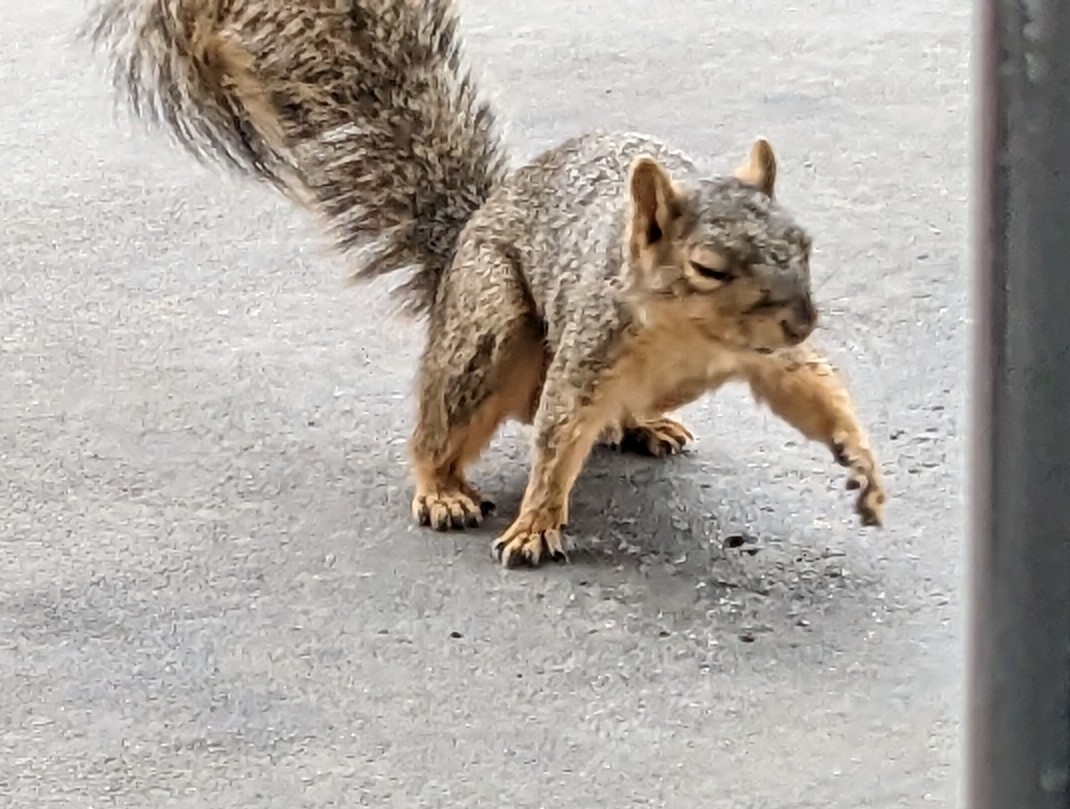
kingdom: Animalia
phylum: Chordata
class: Mammalia
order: Rodentia
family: Sciuridae
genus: Sciurus
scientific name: Sciurus niger
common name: Fox squirrel
